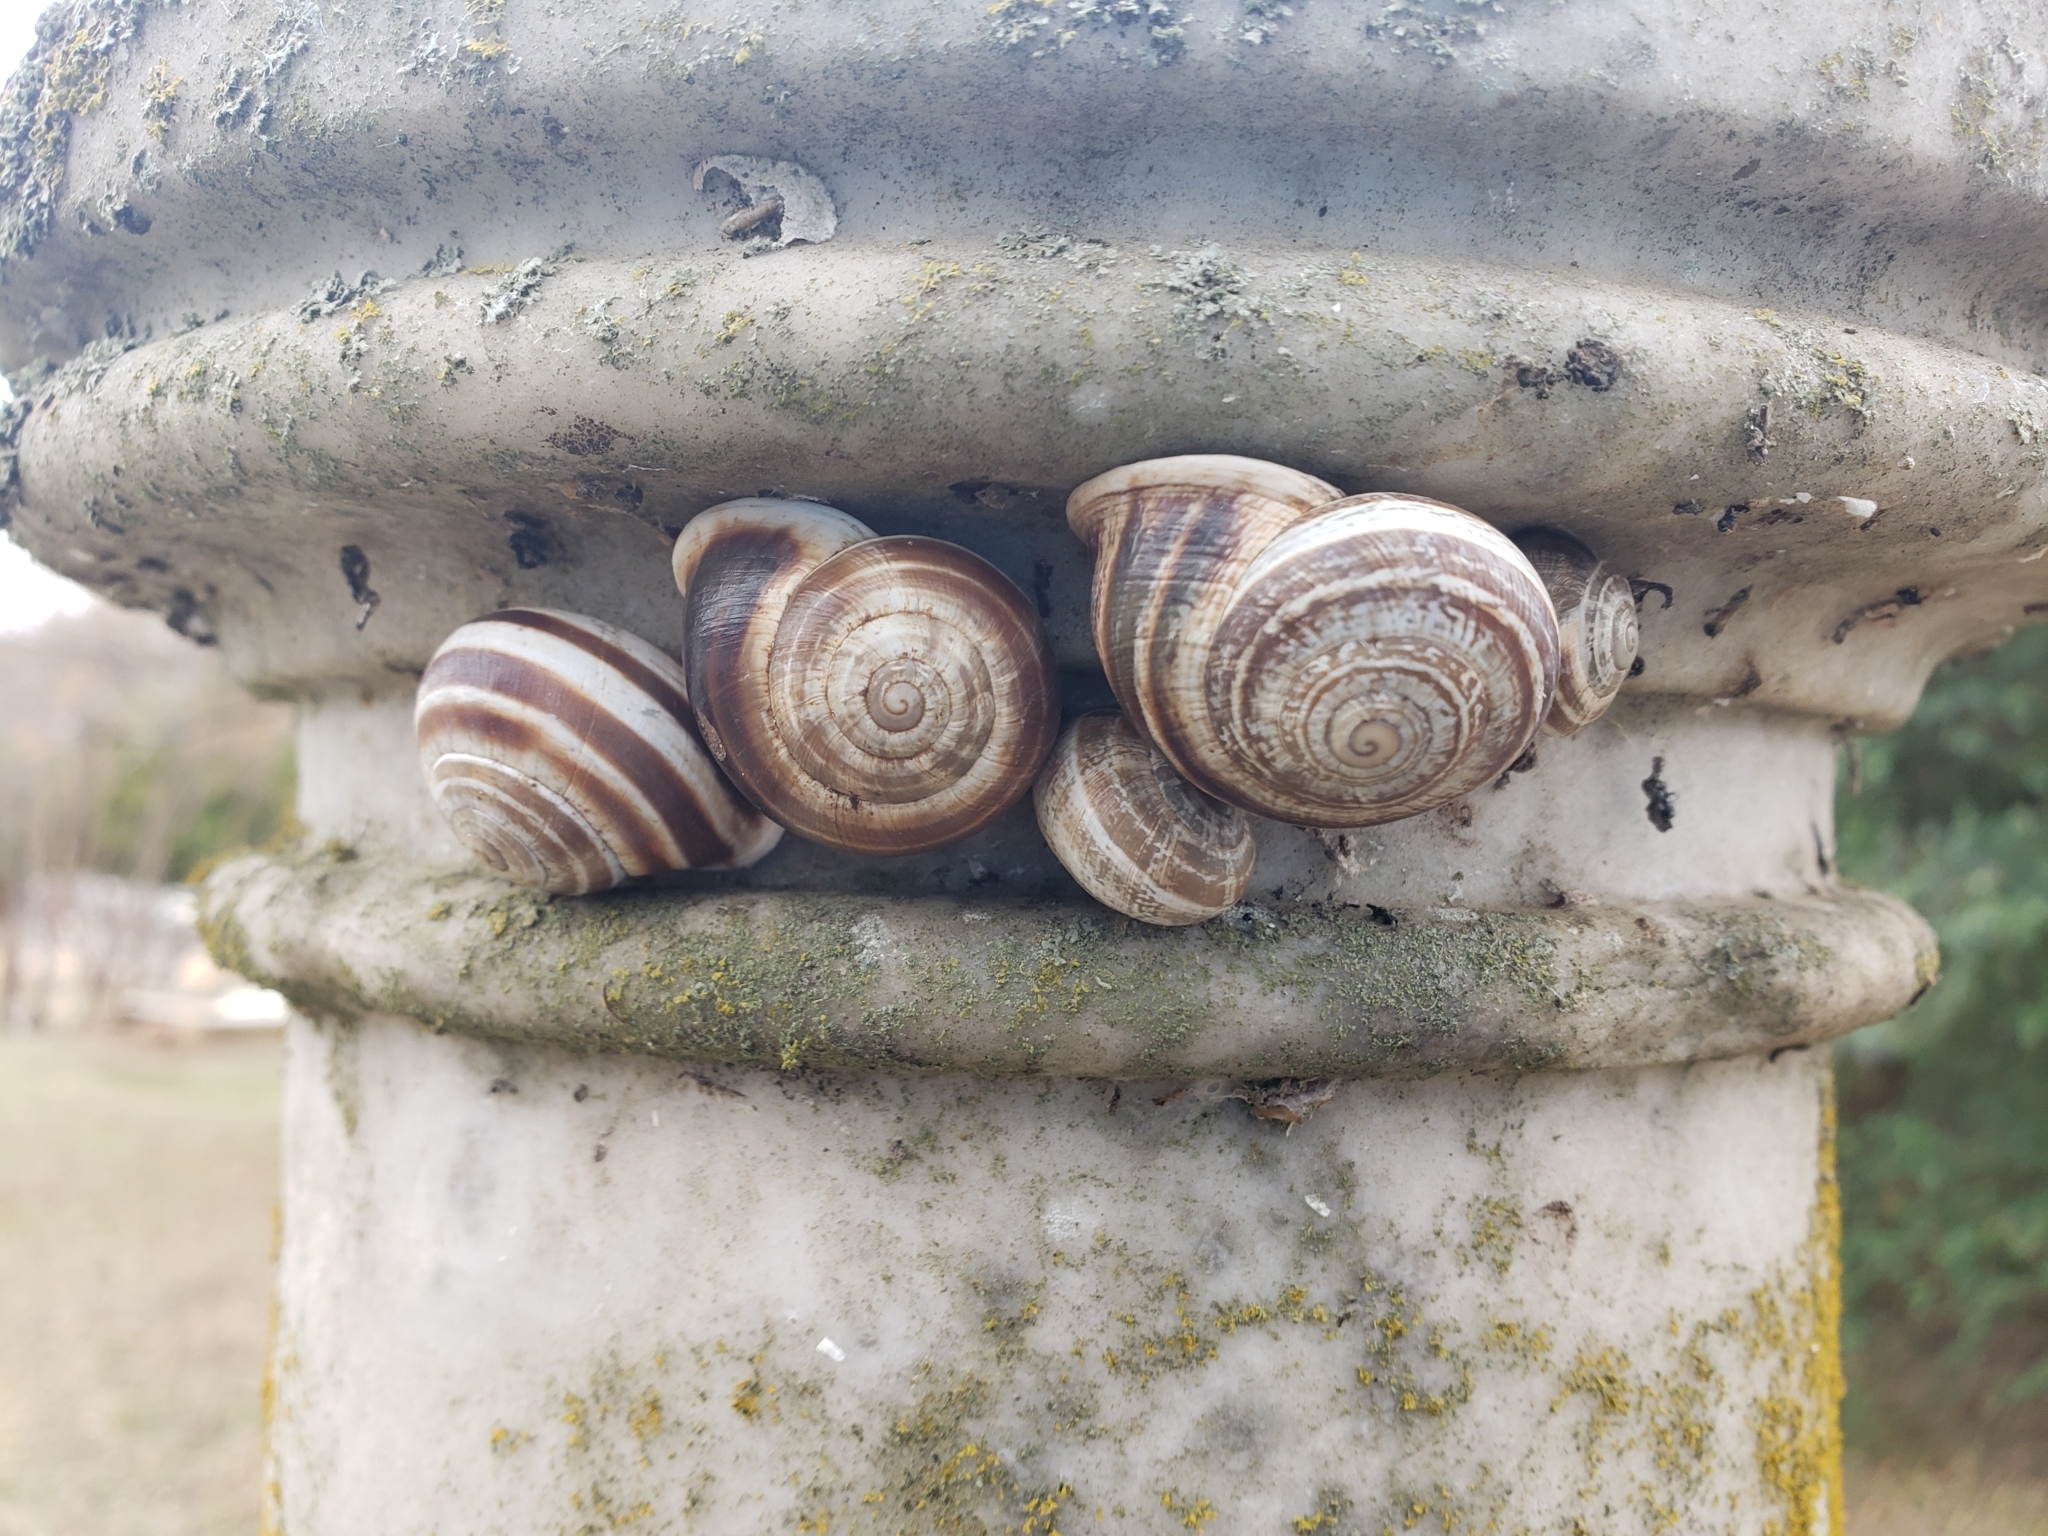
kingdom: Animalia
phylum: Mollusca
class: Gastropoda
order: Stylommatophora
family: Helicidae
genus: Otala
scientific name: Otala lactea
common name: Milk snail
